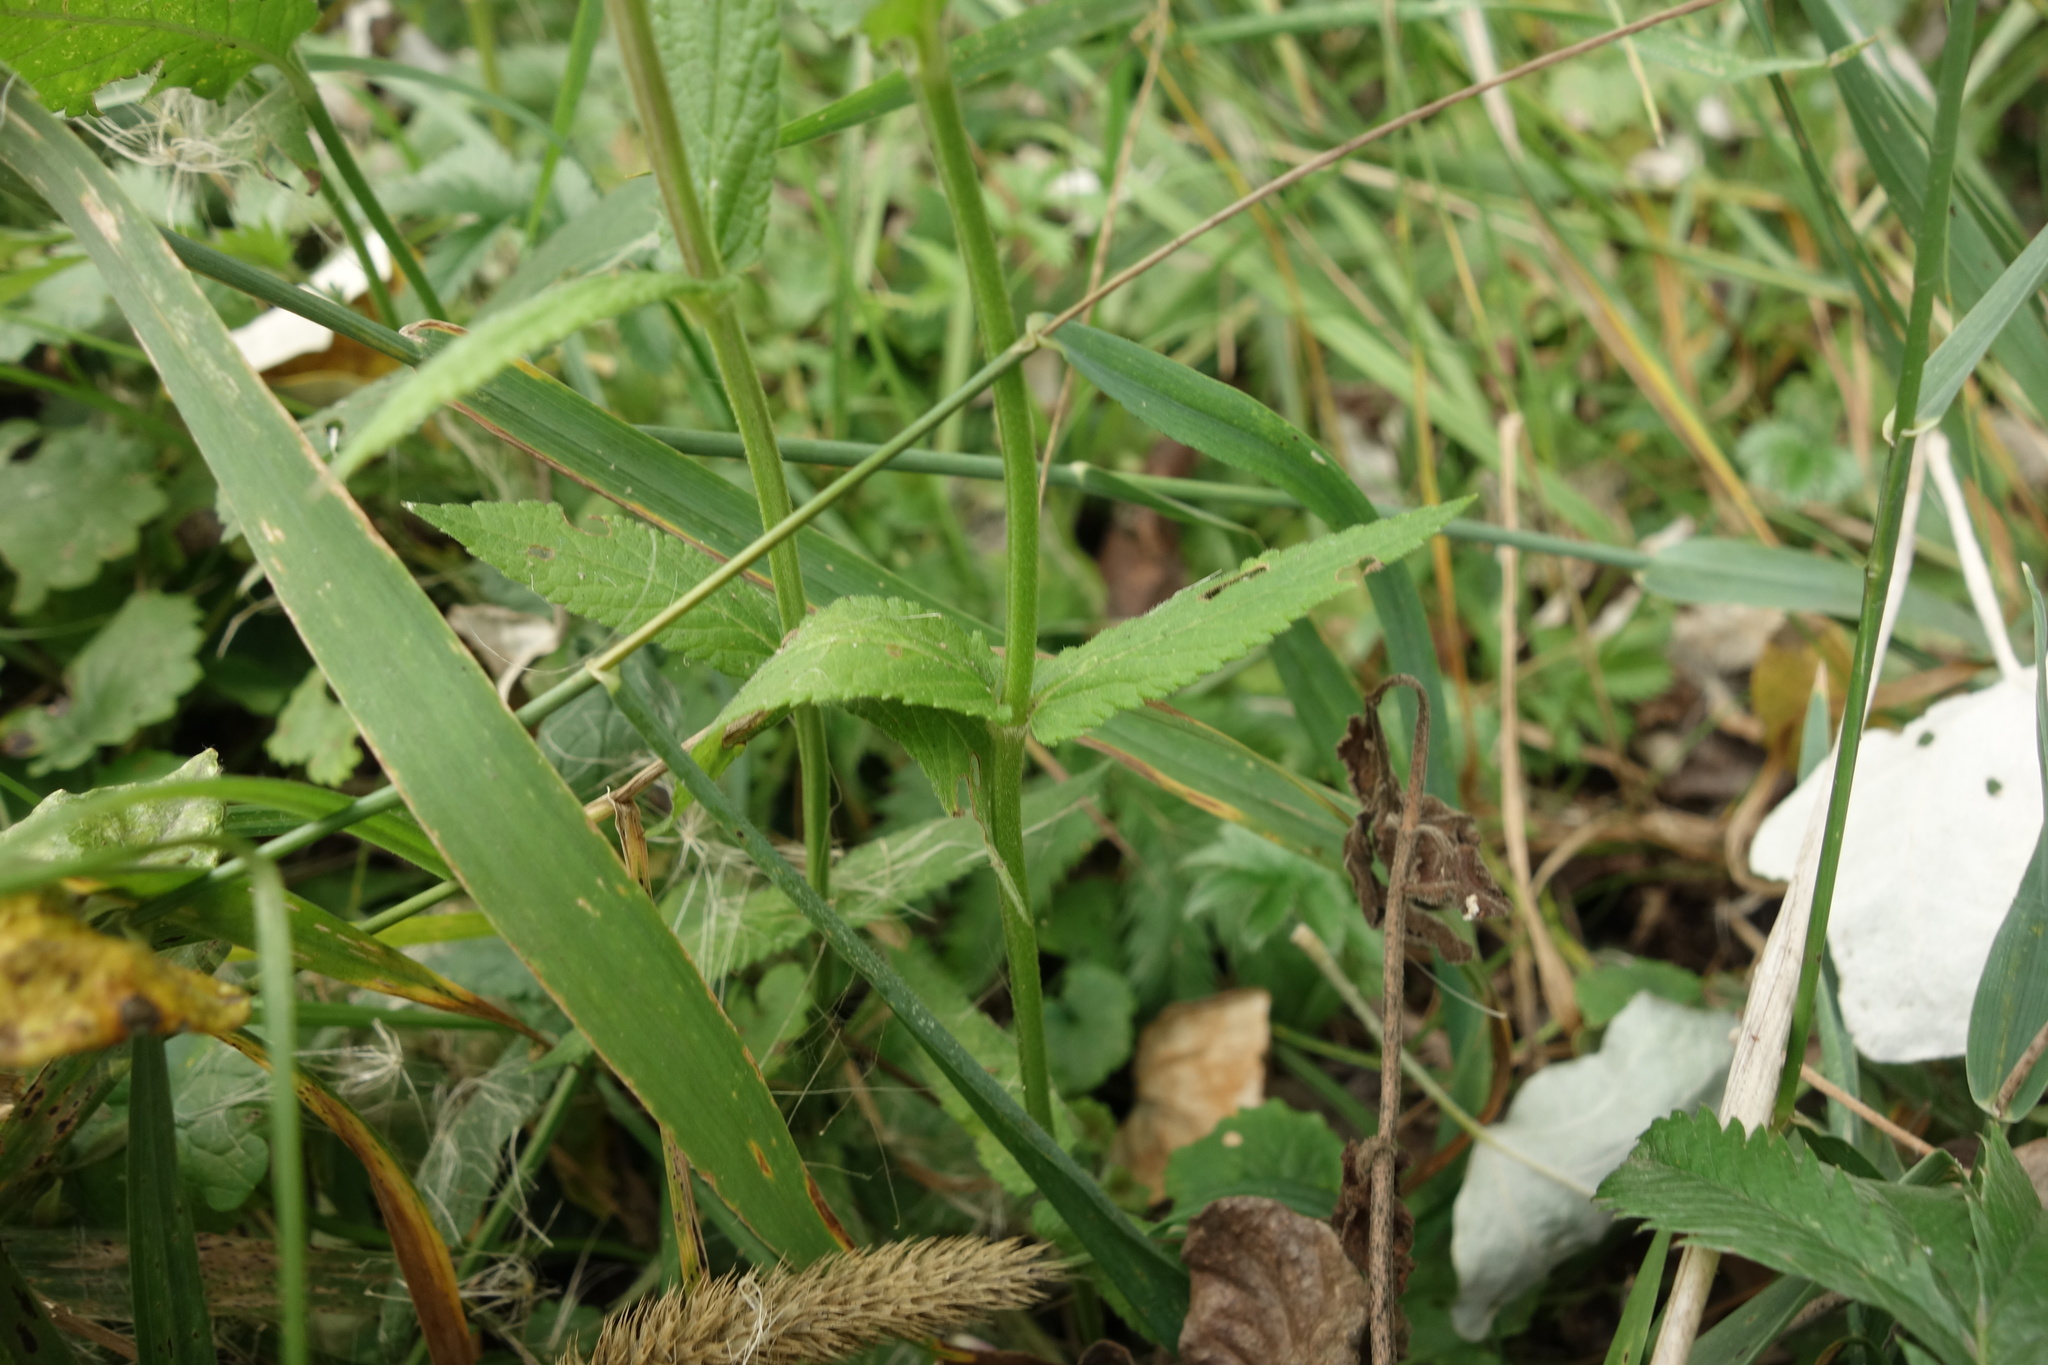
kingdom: Plantae
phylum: Tracheophyta
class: Magnoliopsida
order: Lamiales
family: Lamiaceae
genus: Stachys
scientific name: Stachys palustris
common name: Marsh woundwort
